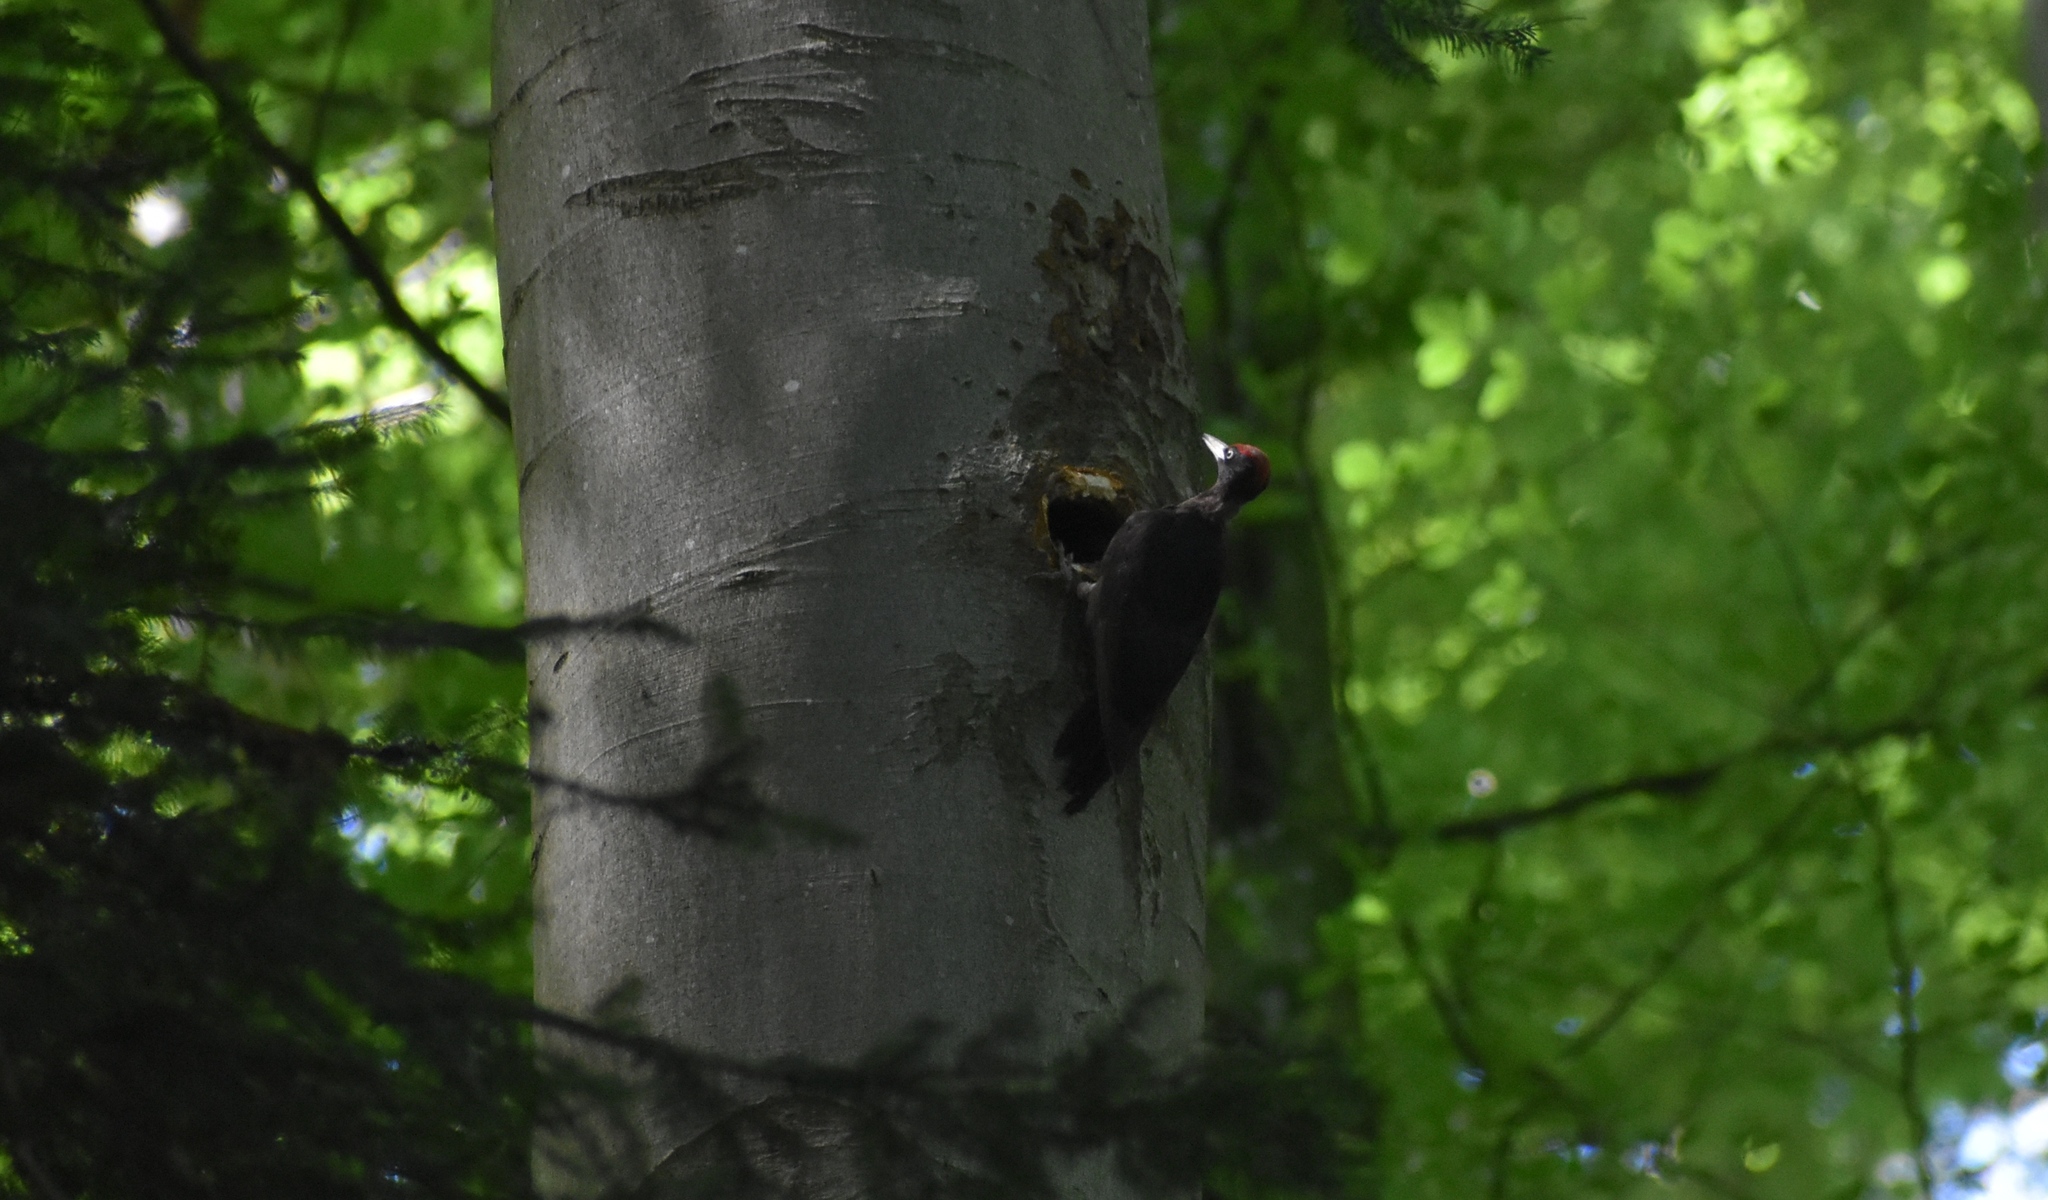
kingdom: Animalia
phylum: Chordata
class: Aves
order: Piciformes
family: Picidae
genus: Dryocopus
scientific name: Dryocopus martius
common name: Black woodpecker
